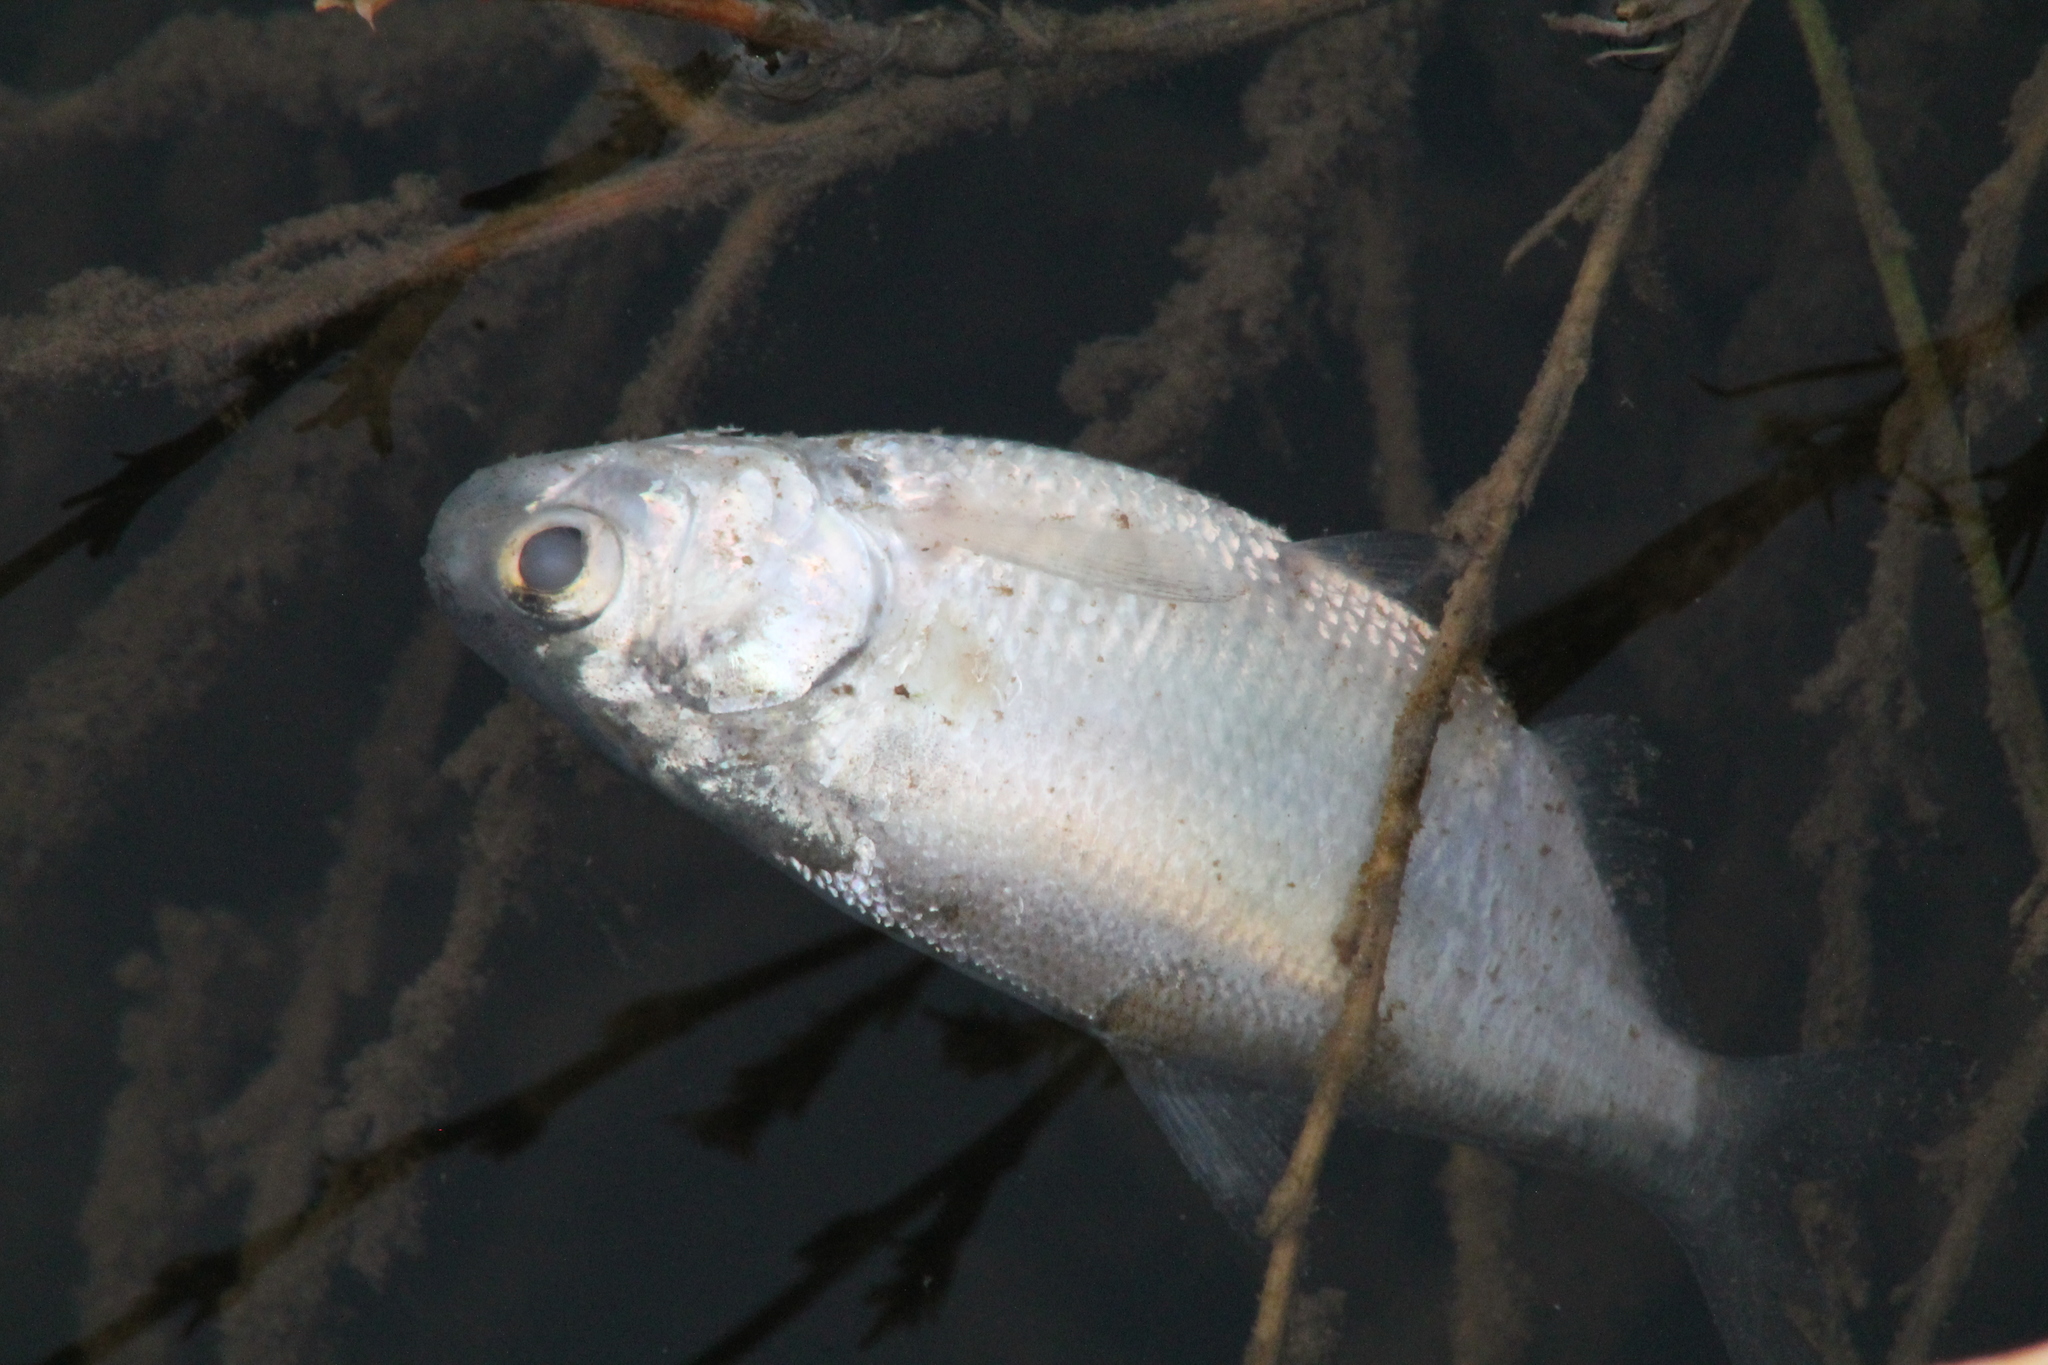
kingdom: Animalia
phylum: Chordata
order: Clupeiformes
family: Clupeidae
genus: Dorosoma
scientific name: Dorosoma cepedianum
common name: Gizzard shad
